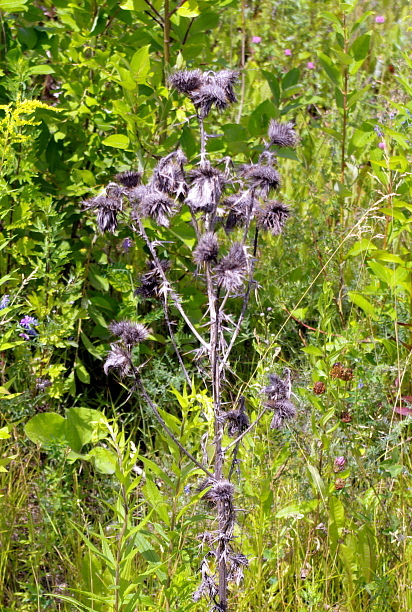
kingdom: Plantae
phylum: Tracheophyta
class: Magnoliopsida
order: Asterales
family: Asteraceae
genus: Cirsium
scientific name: Cirsium vulgare
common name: Bull thistle
